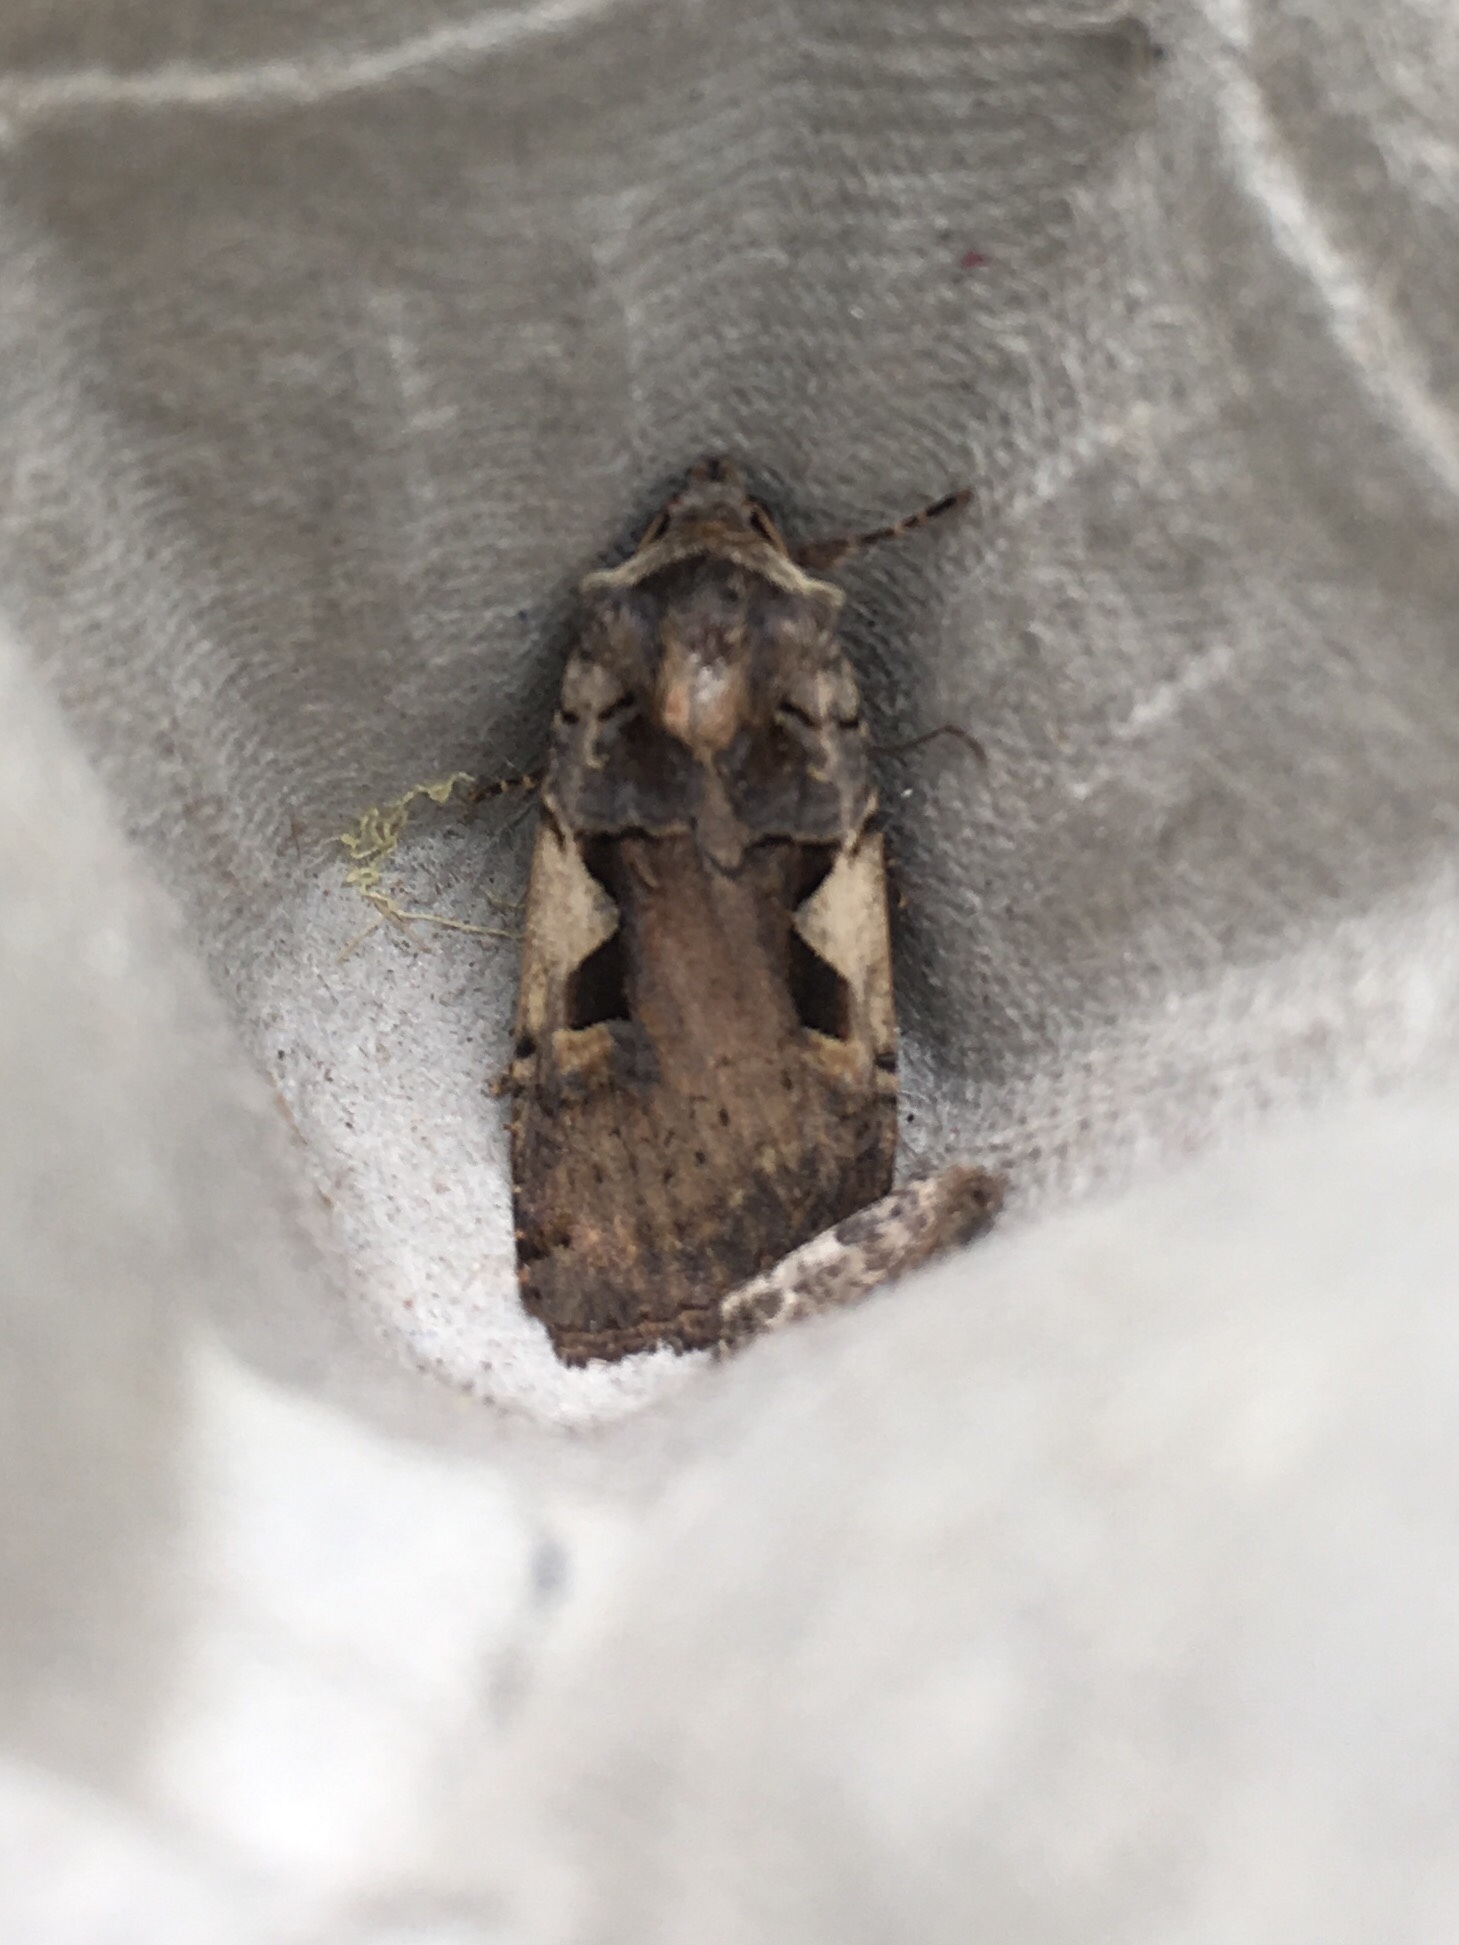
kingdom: Animalia
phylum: Arthropoda
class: Insecta
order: Lepidoptera
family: Noctuidae
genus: Xestia
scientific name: Xestia
